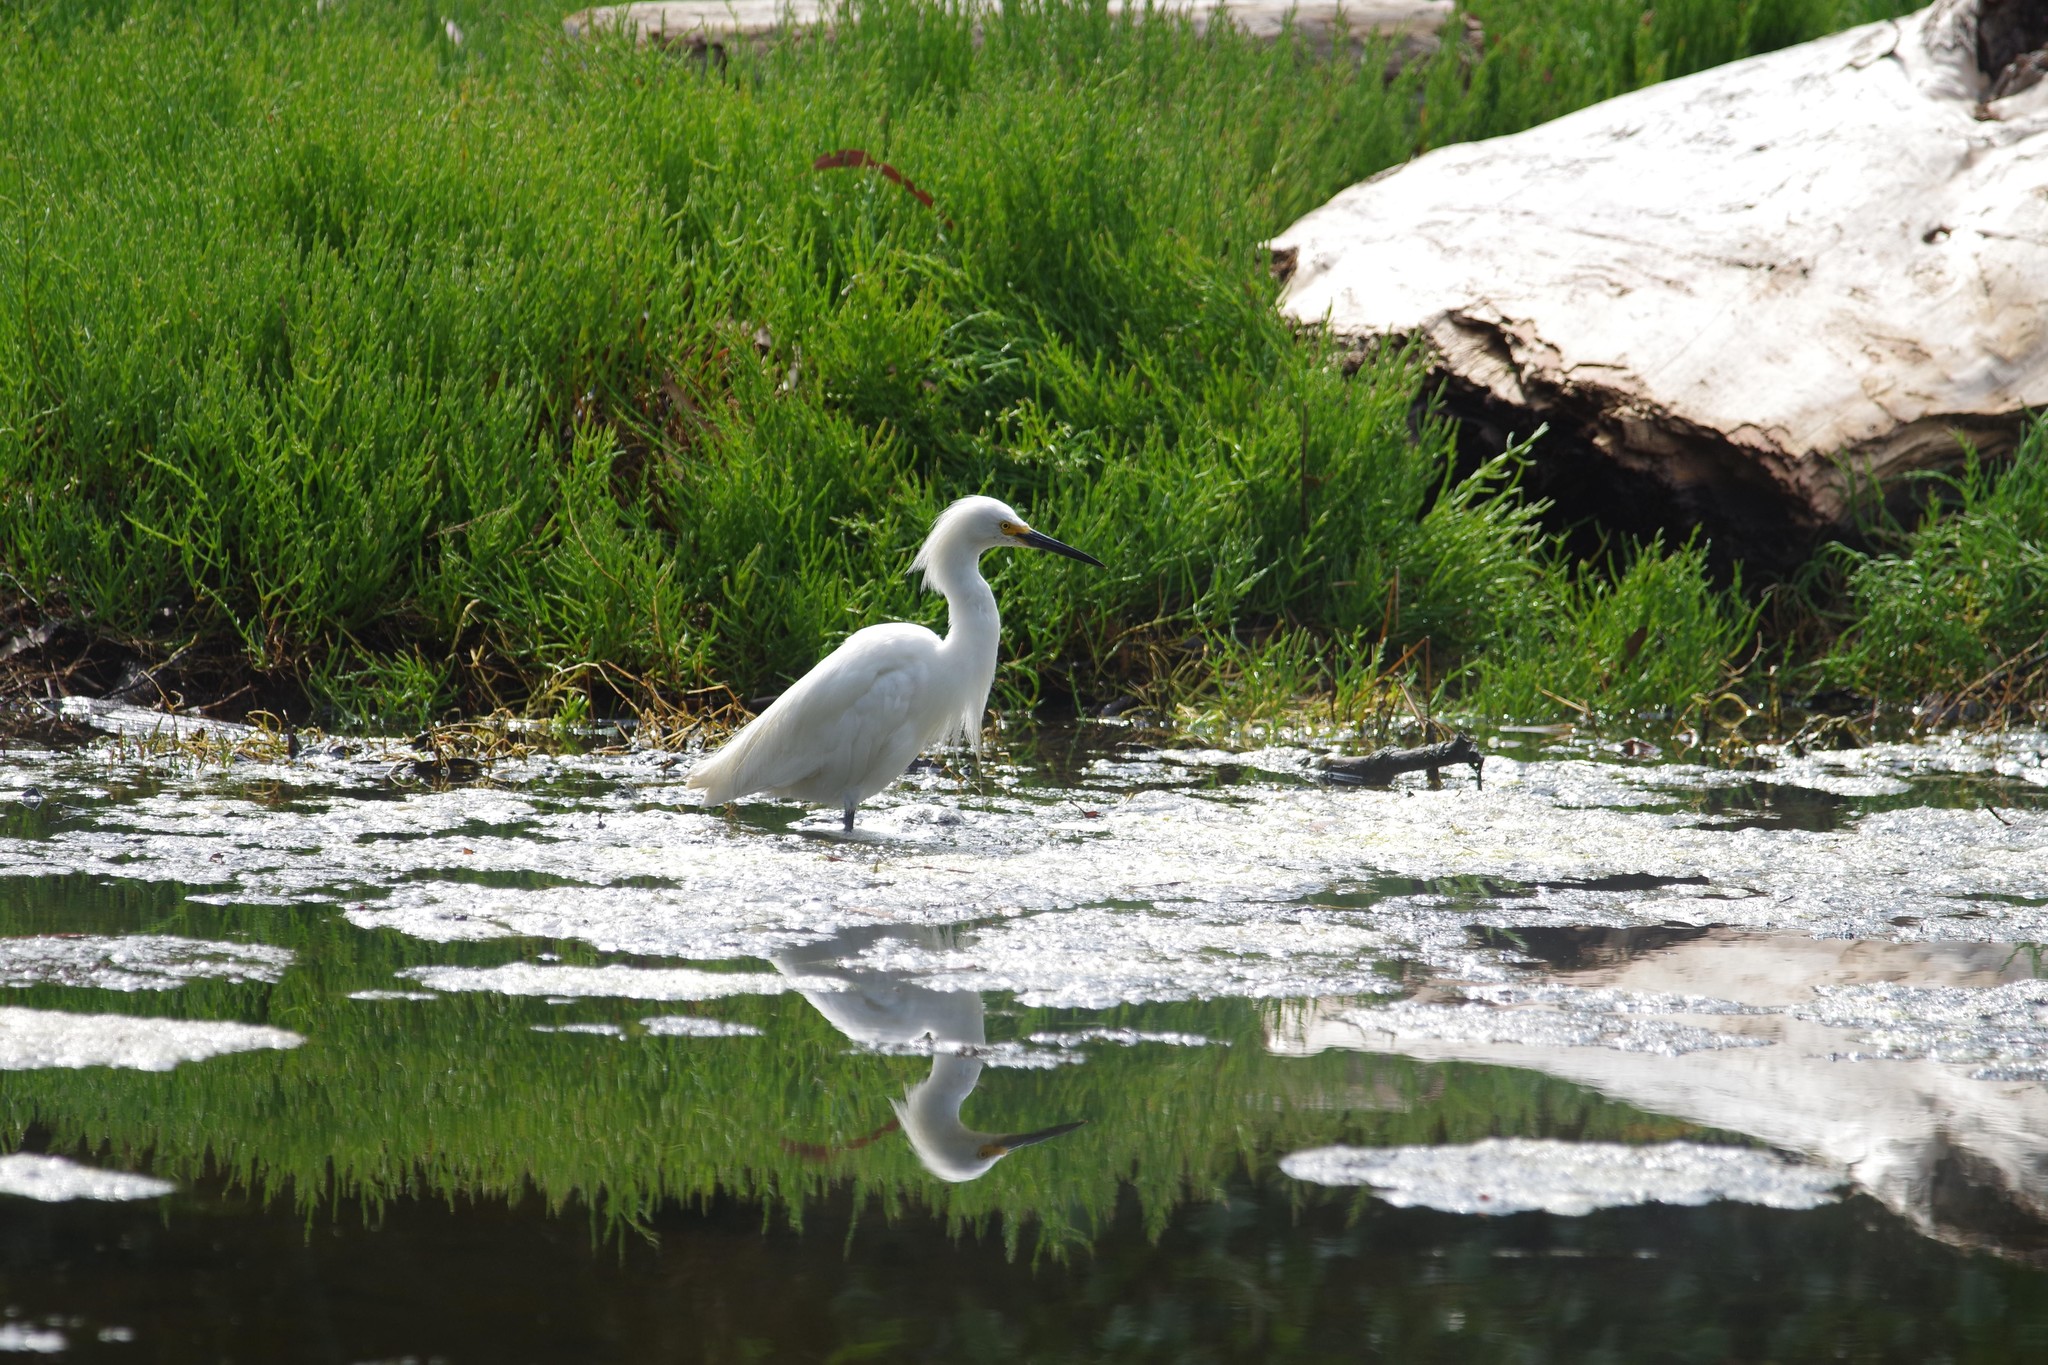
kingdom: Animalia
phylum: Chordata
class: Aves
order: Pelecaniformes
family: Ardeidae
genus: Egretta
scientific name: Egretta thula
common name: Snowy egret
